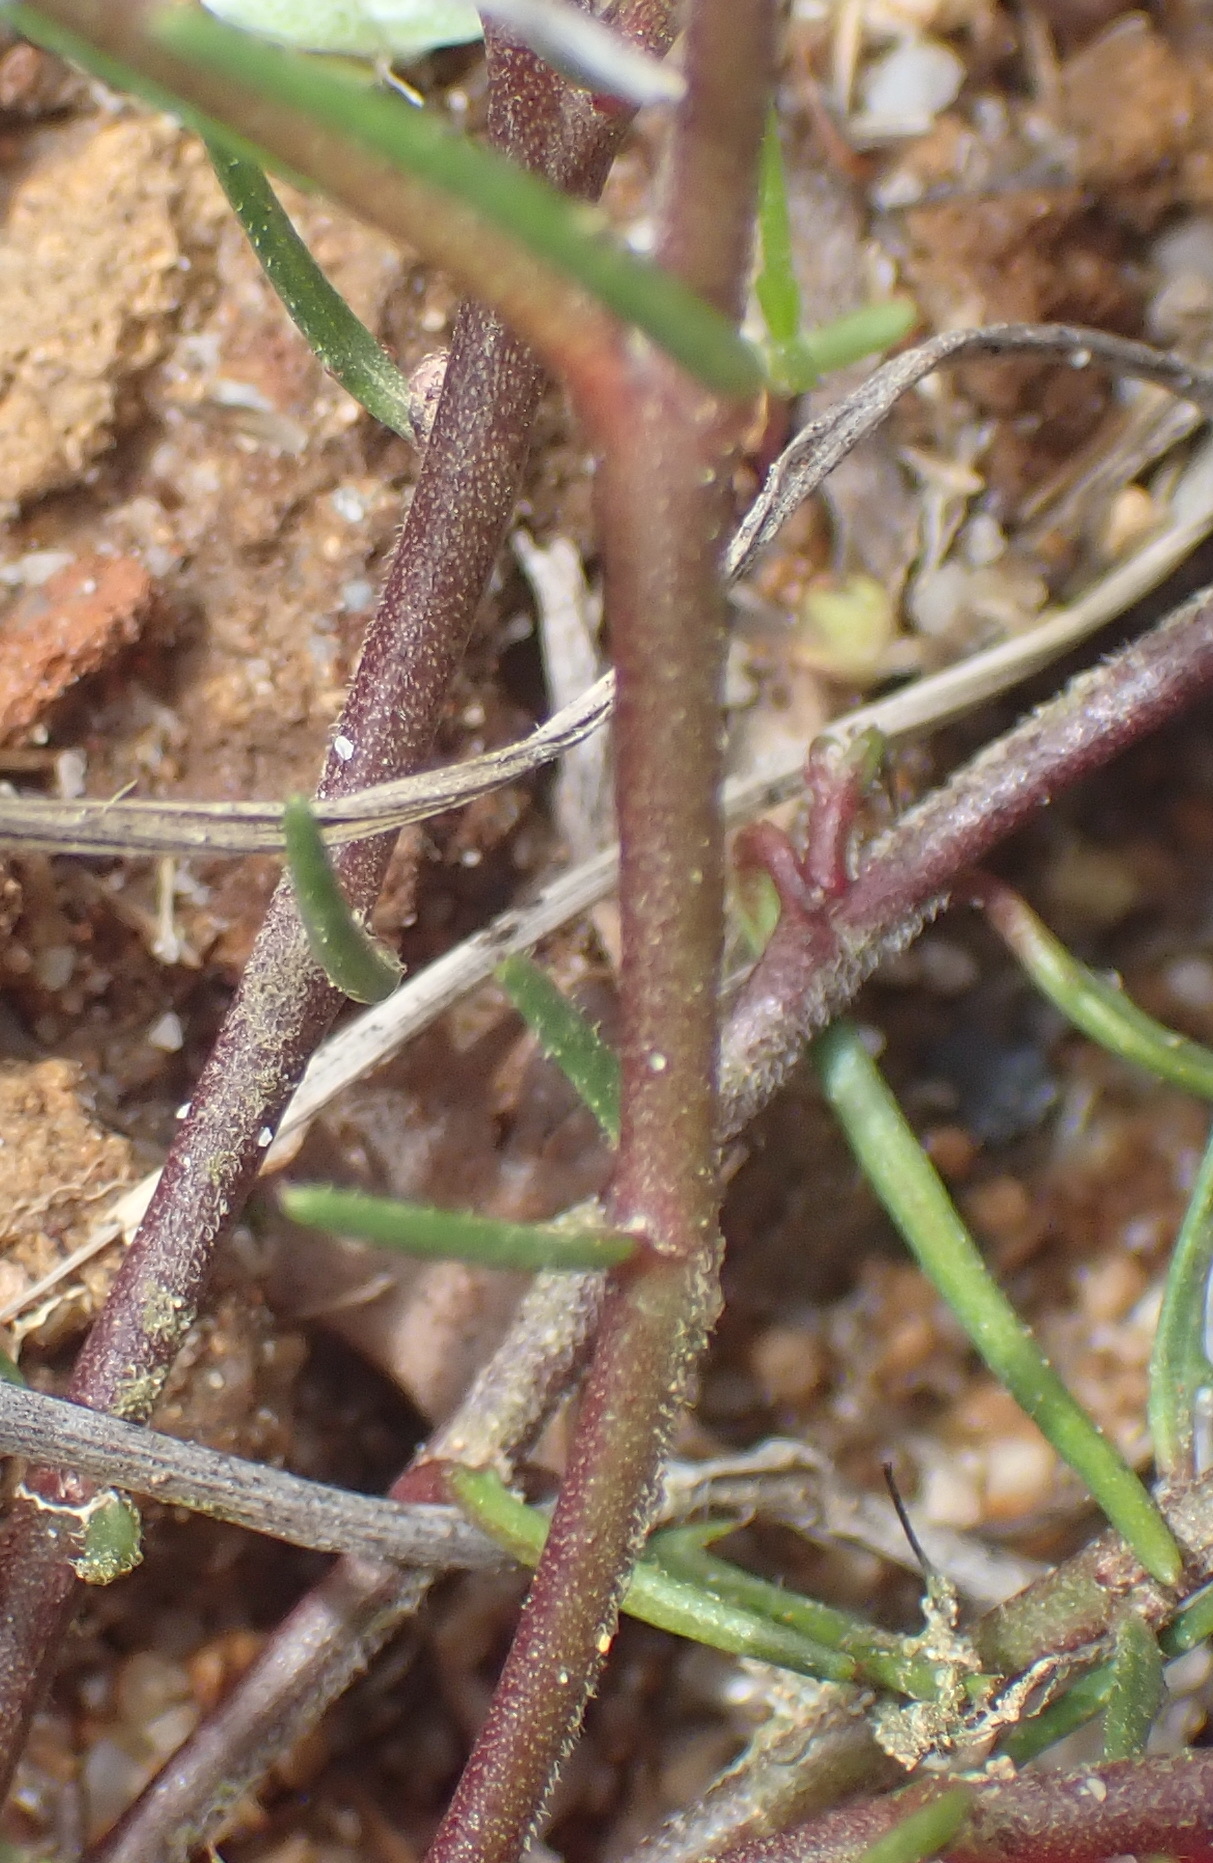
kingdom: Plantae
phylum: Tracheophyta
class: Magnoliopsida
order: Gentianales
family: Apocynaceae
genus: Eustegia
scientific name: Eustegia minuta
